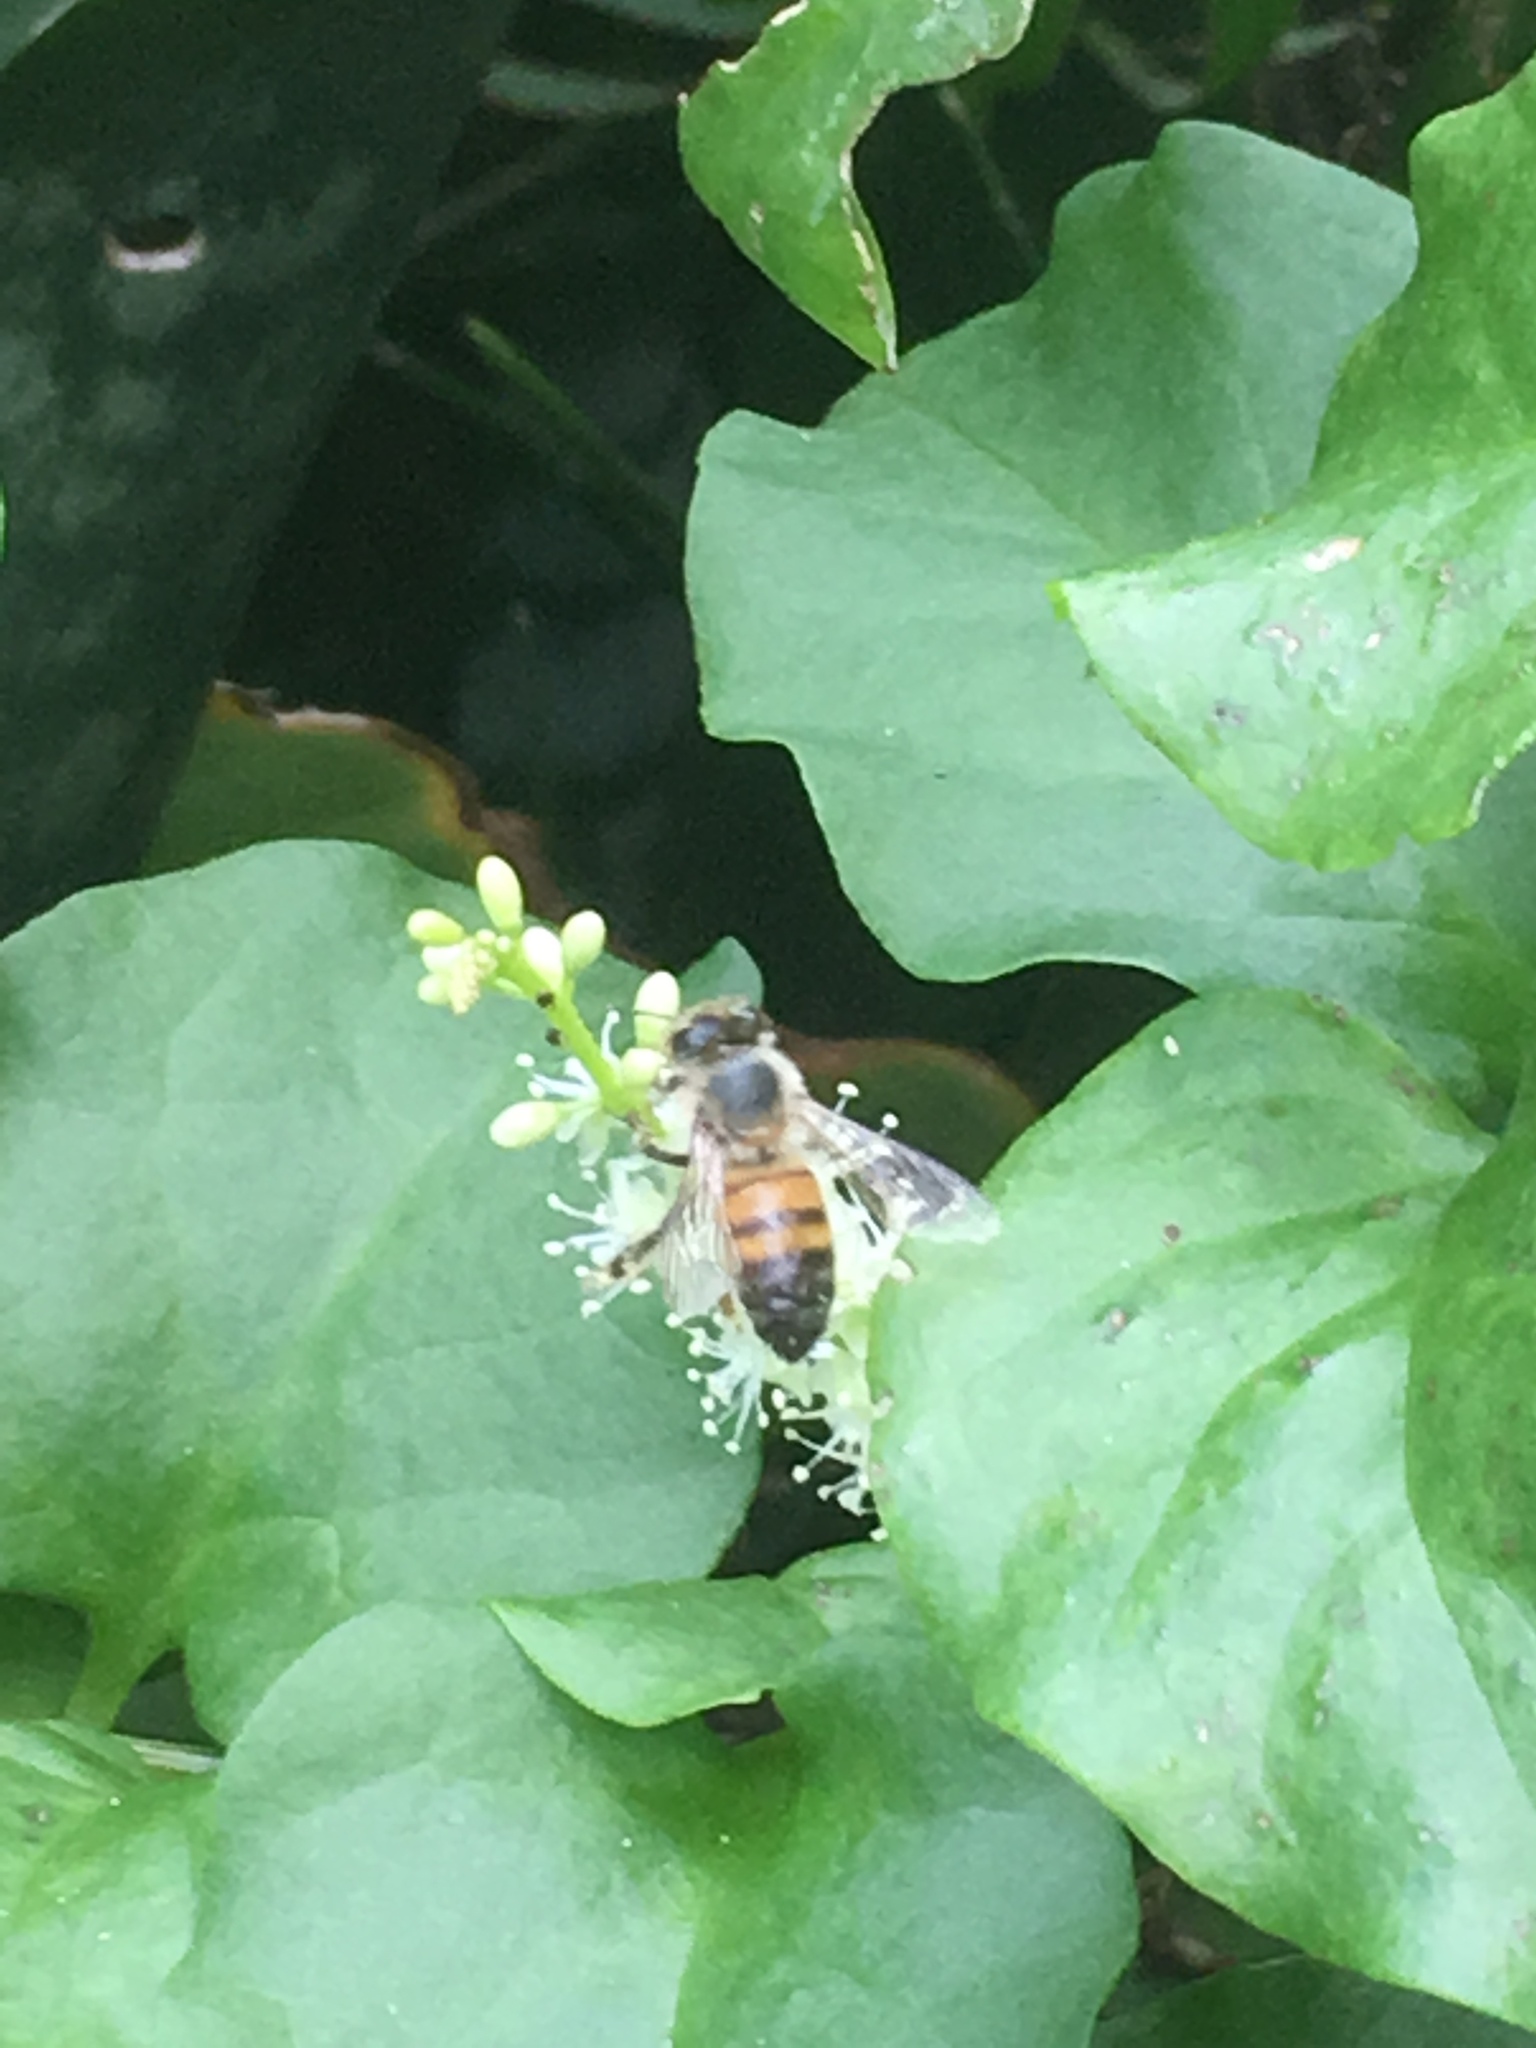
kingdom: Animalia
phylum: Arthropoda
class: Insecta
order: Hymenoptera
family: Apidae
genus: Apis
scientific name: Apis mellifera
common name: Honey bee
